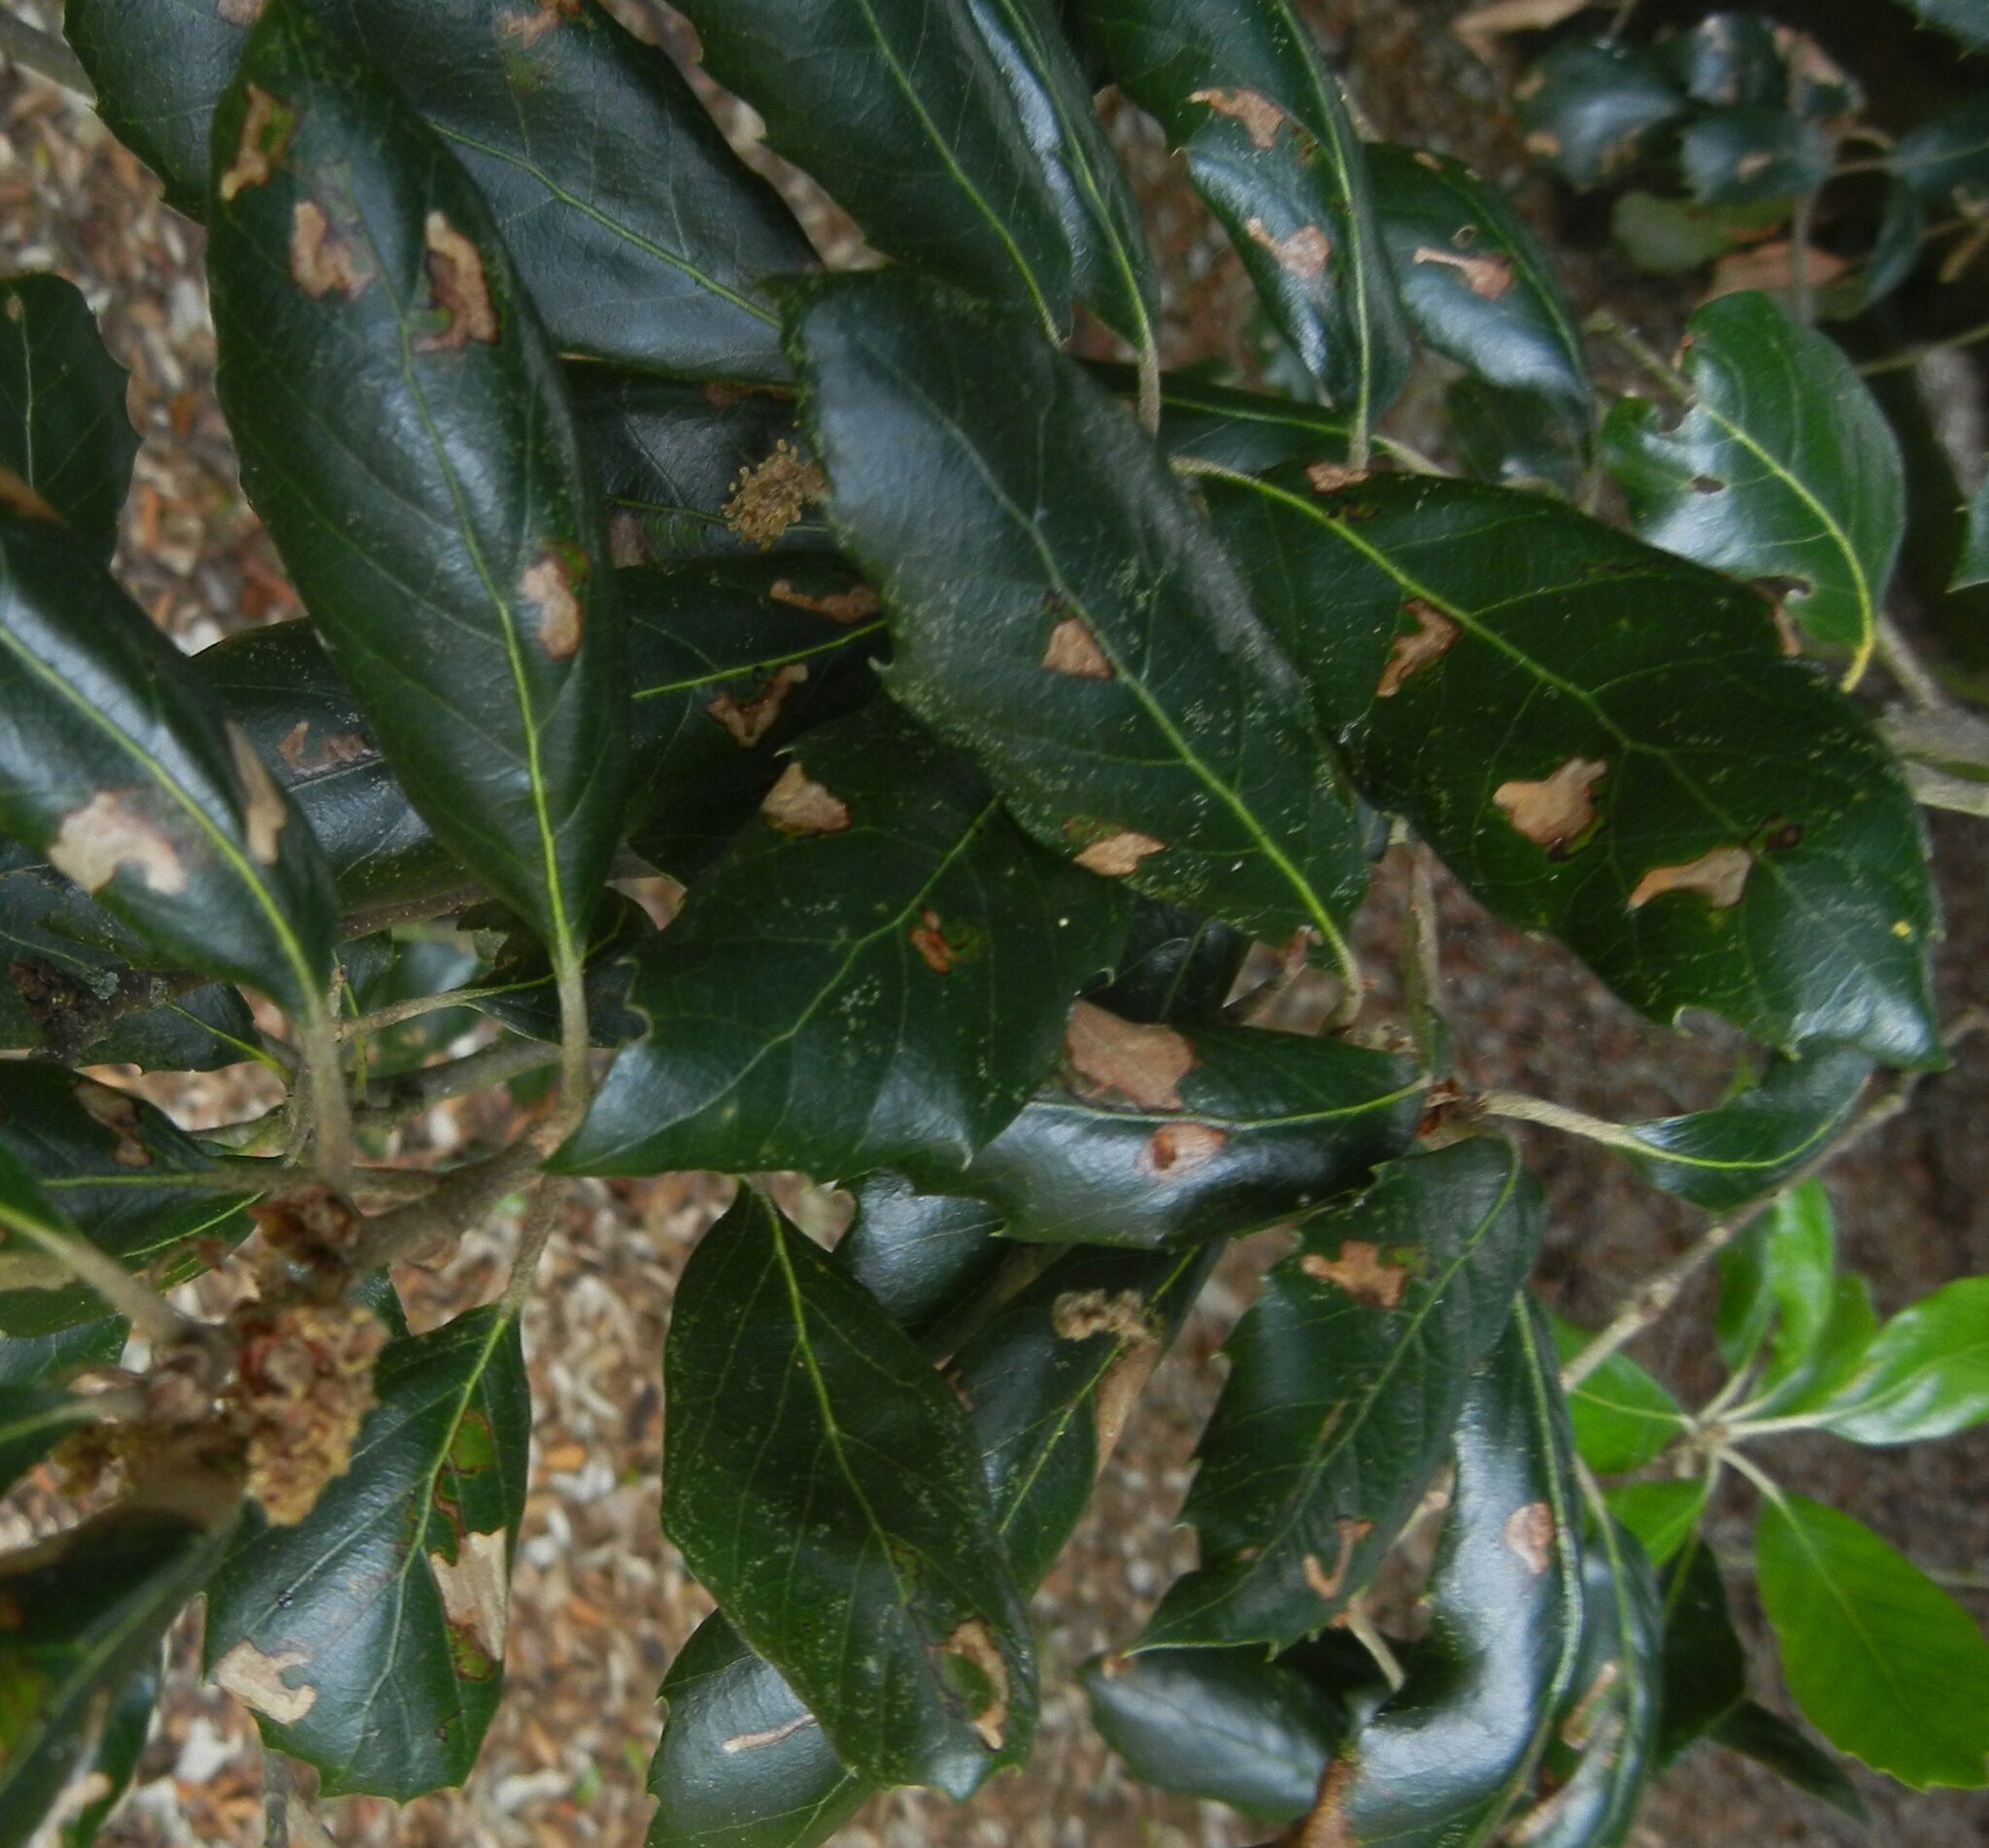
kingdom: Animalia
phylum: Arthropoda
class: Insecta
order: Lepidoptera
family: Nepticulidae
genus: Ectoedemia
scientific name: Ectoedemia heringella
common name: New holm-oak pigmy
